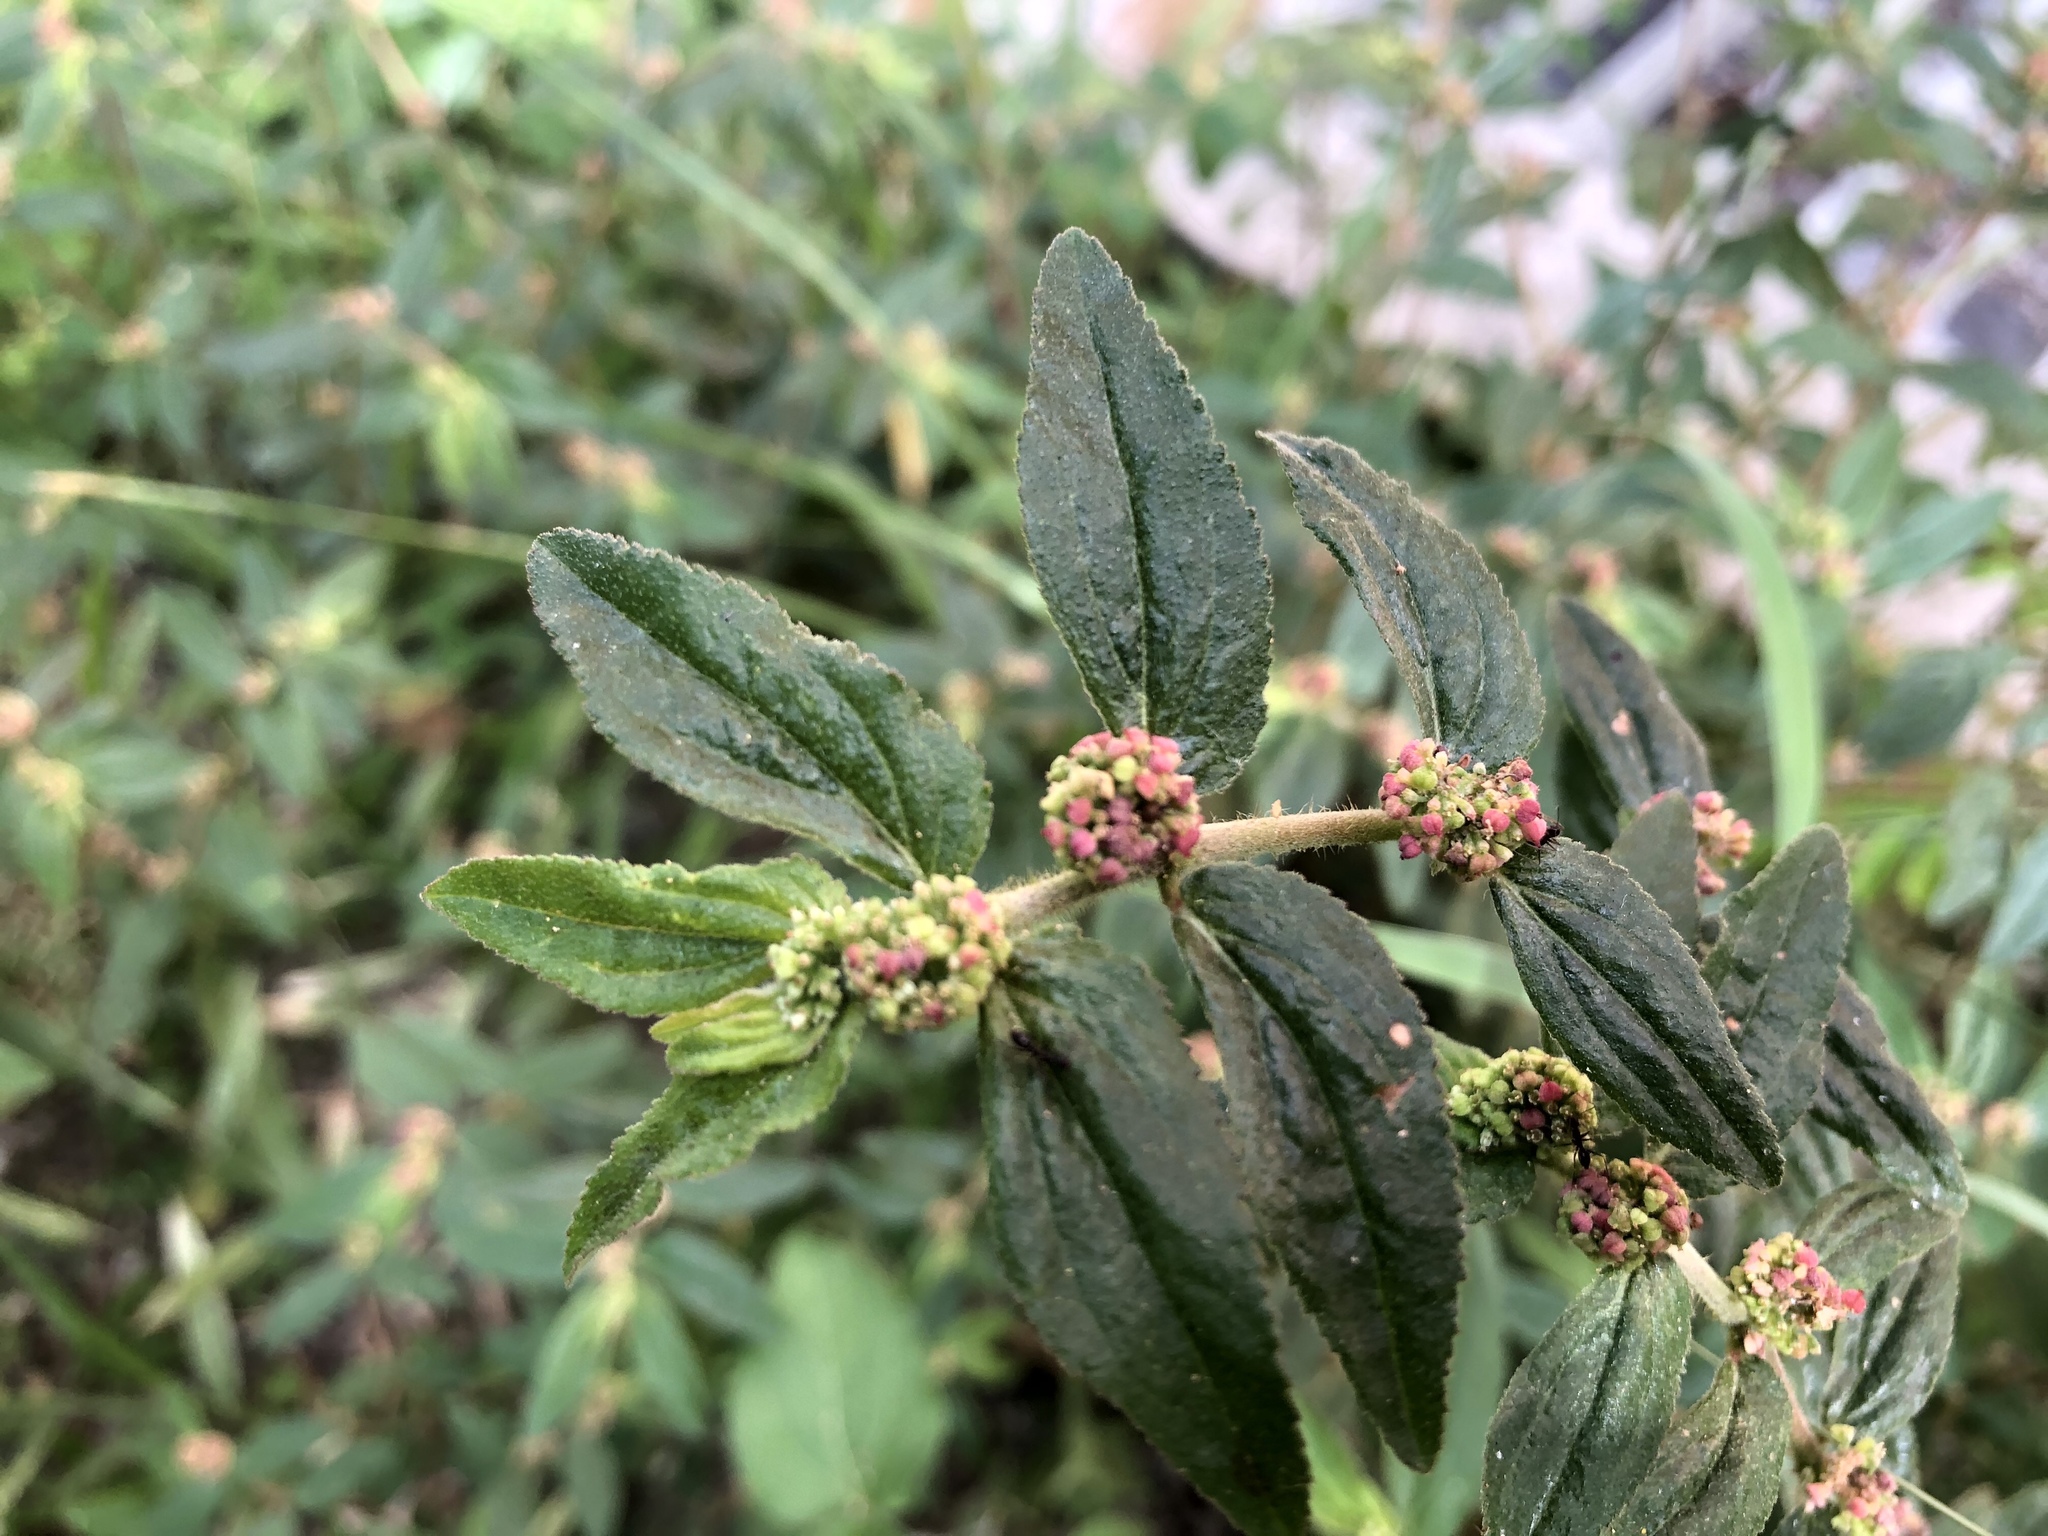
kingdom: Plantae
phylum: Tracheophyta
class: Magnoliopsida
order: Malpighiales
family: Euphorbiaceae
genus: Euphorbia
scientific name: Euphorbia hirta
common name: Pillpod sandmat
